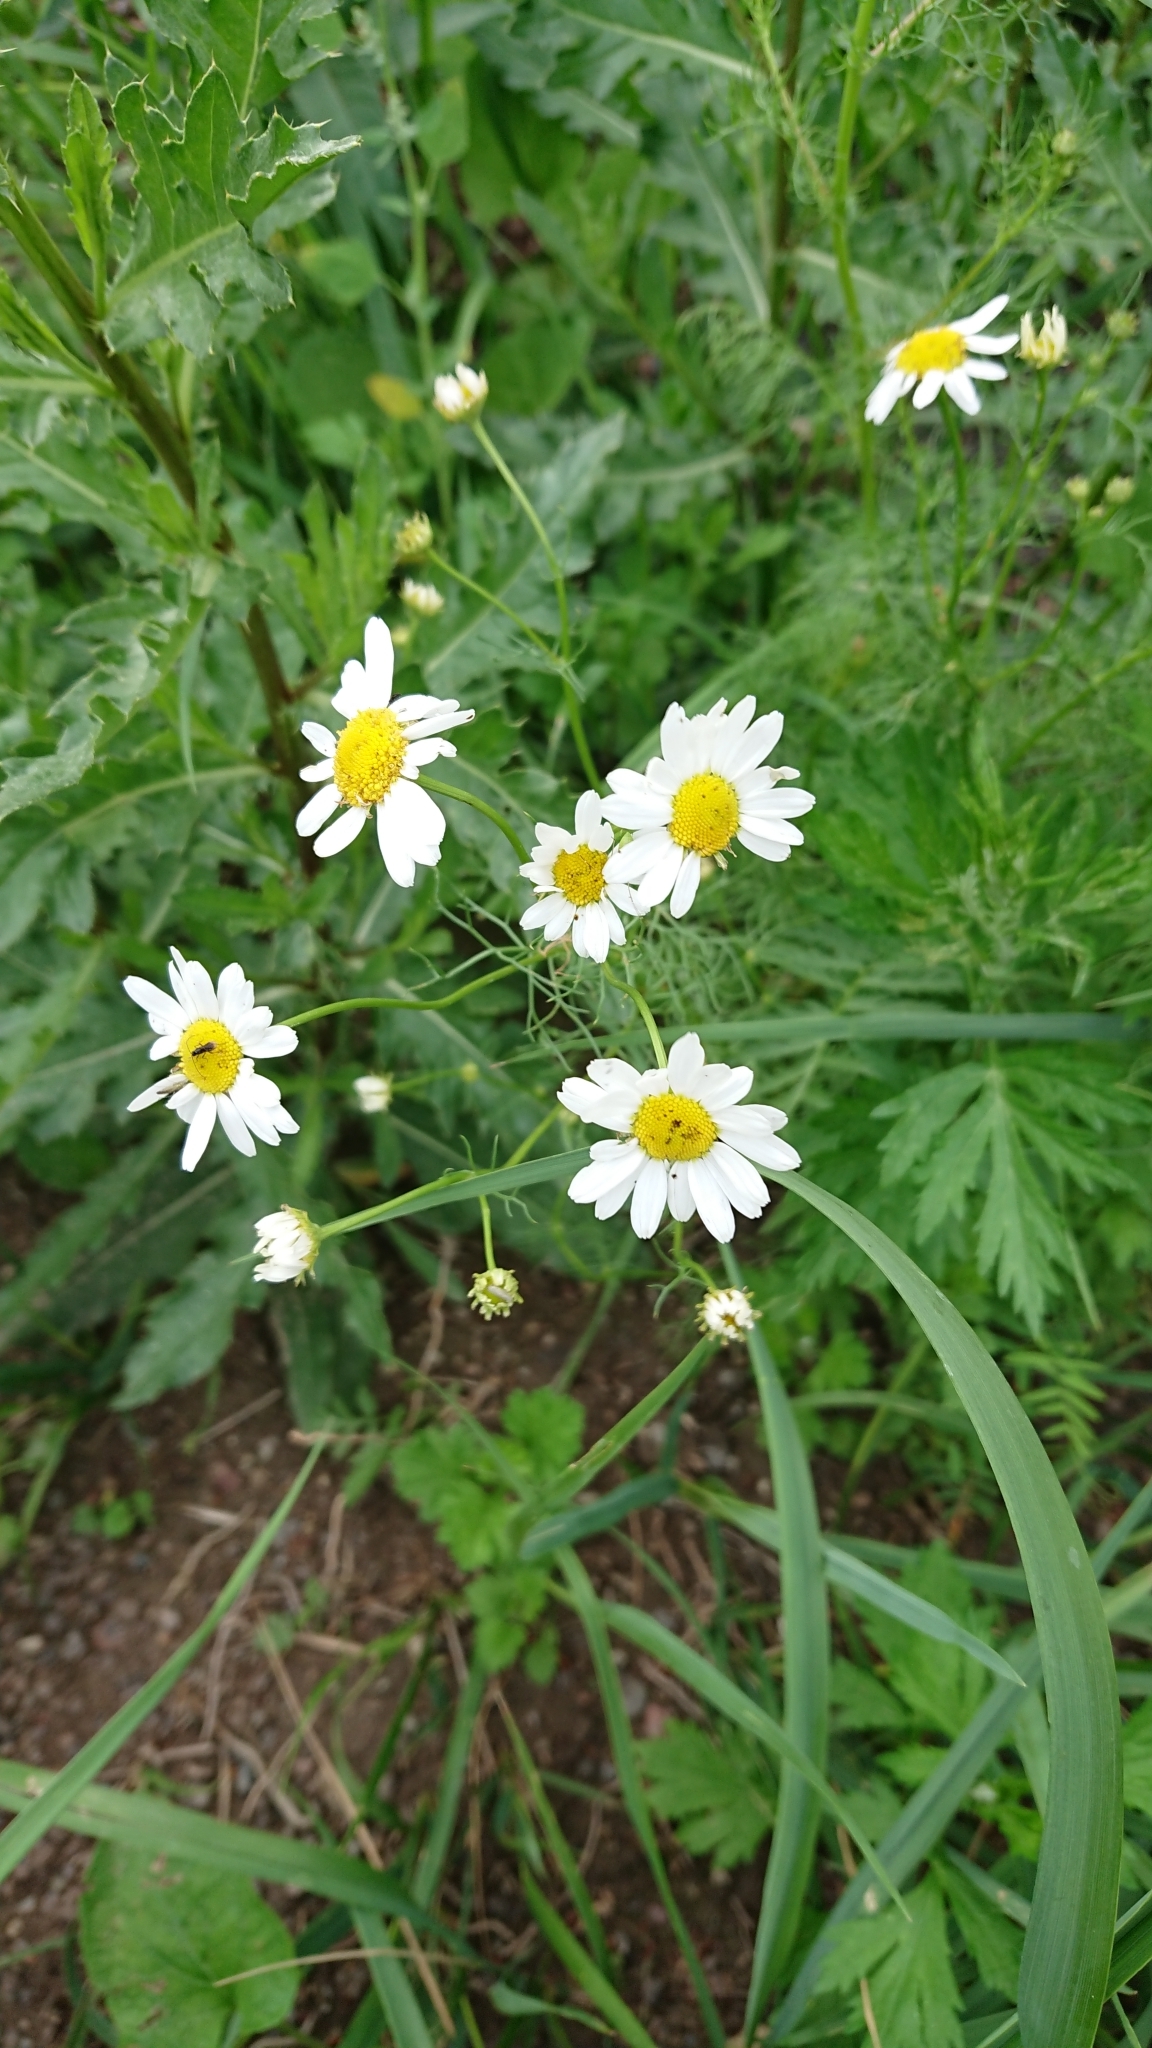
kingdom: Plantae
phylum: Tracheophyta
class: Magnoliopsida
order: Asterales
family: Asteraceae
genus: Tripleurospermum
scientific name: Tripleurospermum inodorum
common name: Scentless mayweed
